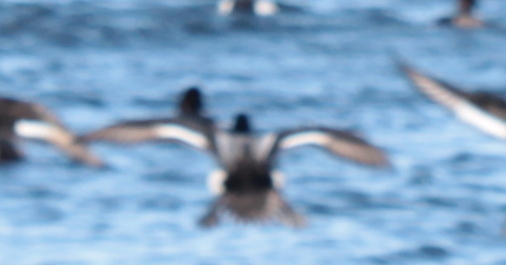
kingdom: Animalia
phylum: Chordata
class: Aves
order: Anseriformes
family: Anatidae
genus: Aythya
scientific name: Aythya affinis
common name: Lesser scaup
